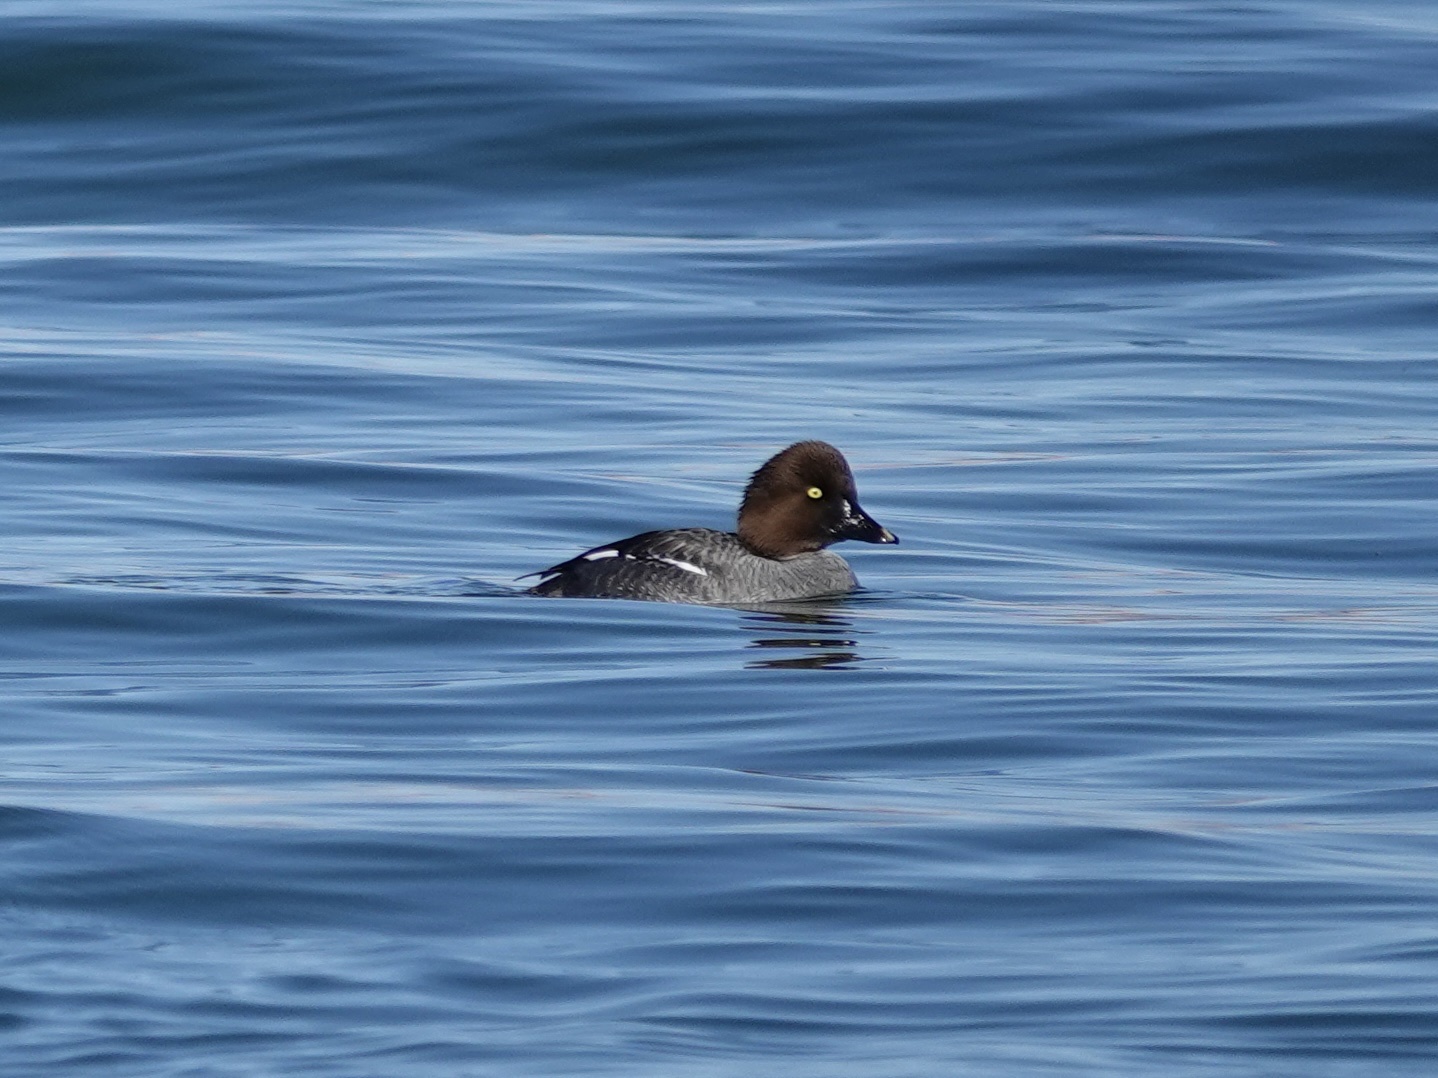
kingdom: Animalia
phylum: Chordata
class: Aves
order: Anseriformes
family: Anatidae
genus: Bucephala
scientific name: Bucephala clangula
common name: Common goldeneye
